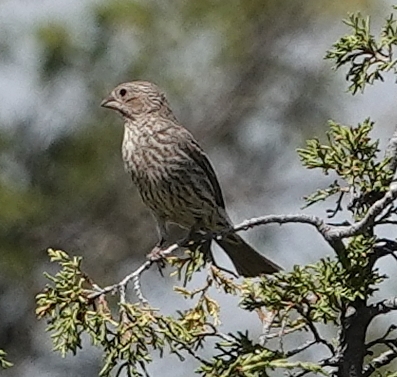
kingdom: Animalia
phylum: Chordata
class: Aves
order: Passeriformes
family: Fringillidae
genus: Haemorhous
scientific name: Haemorhous mexicanus
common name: House finch
